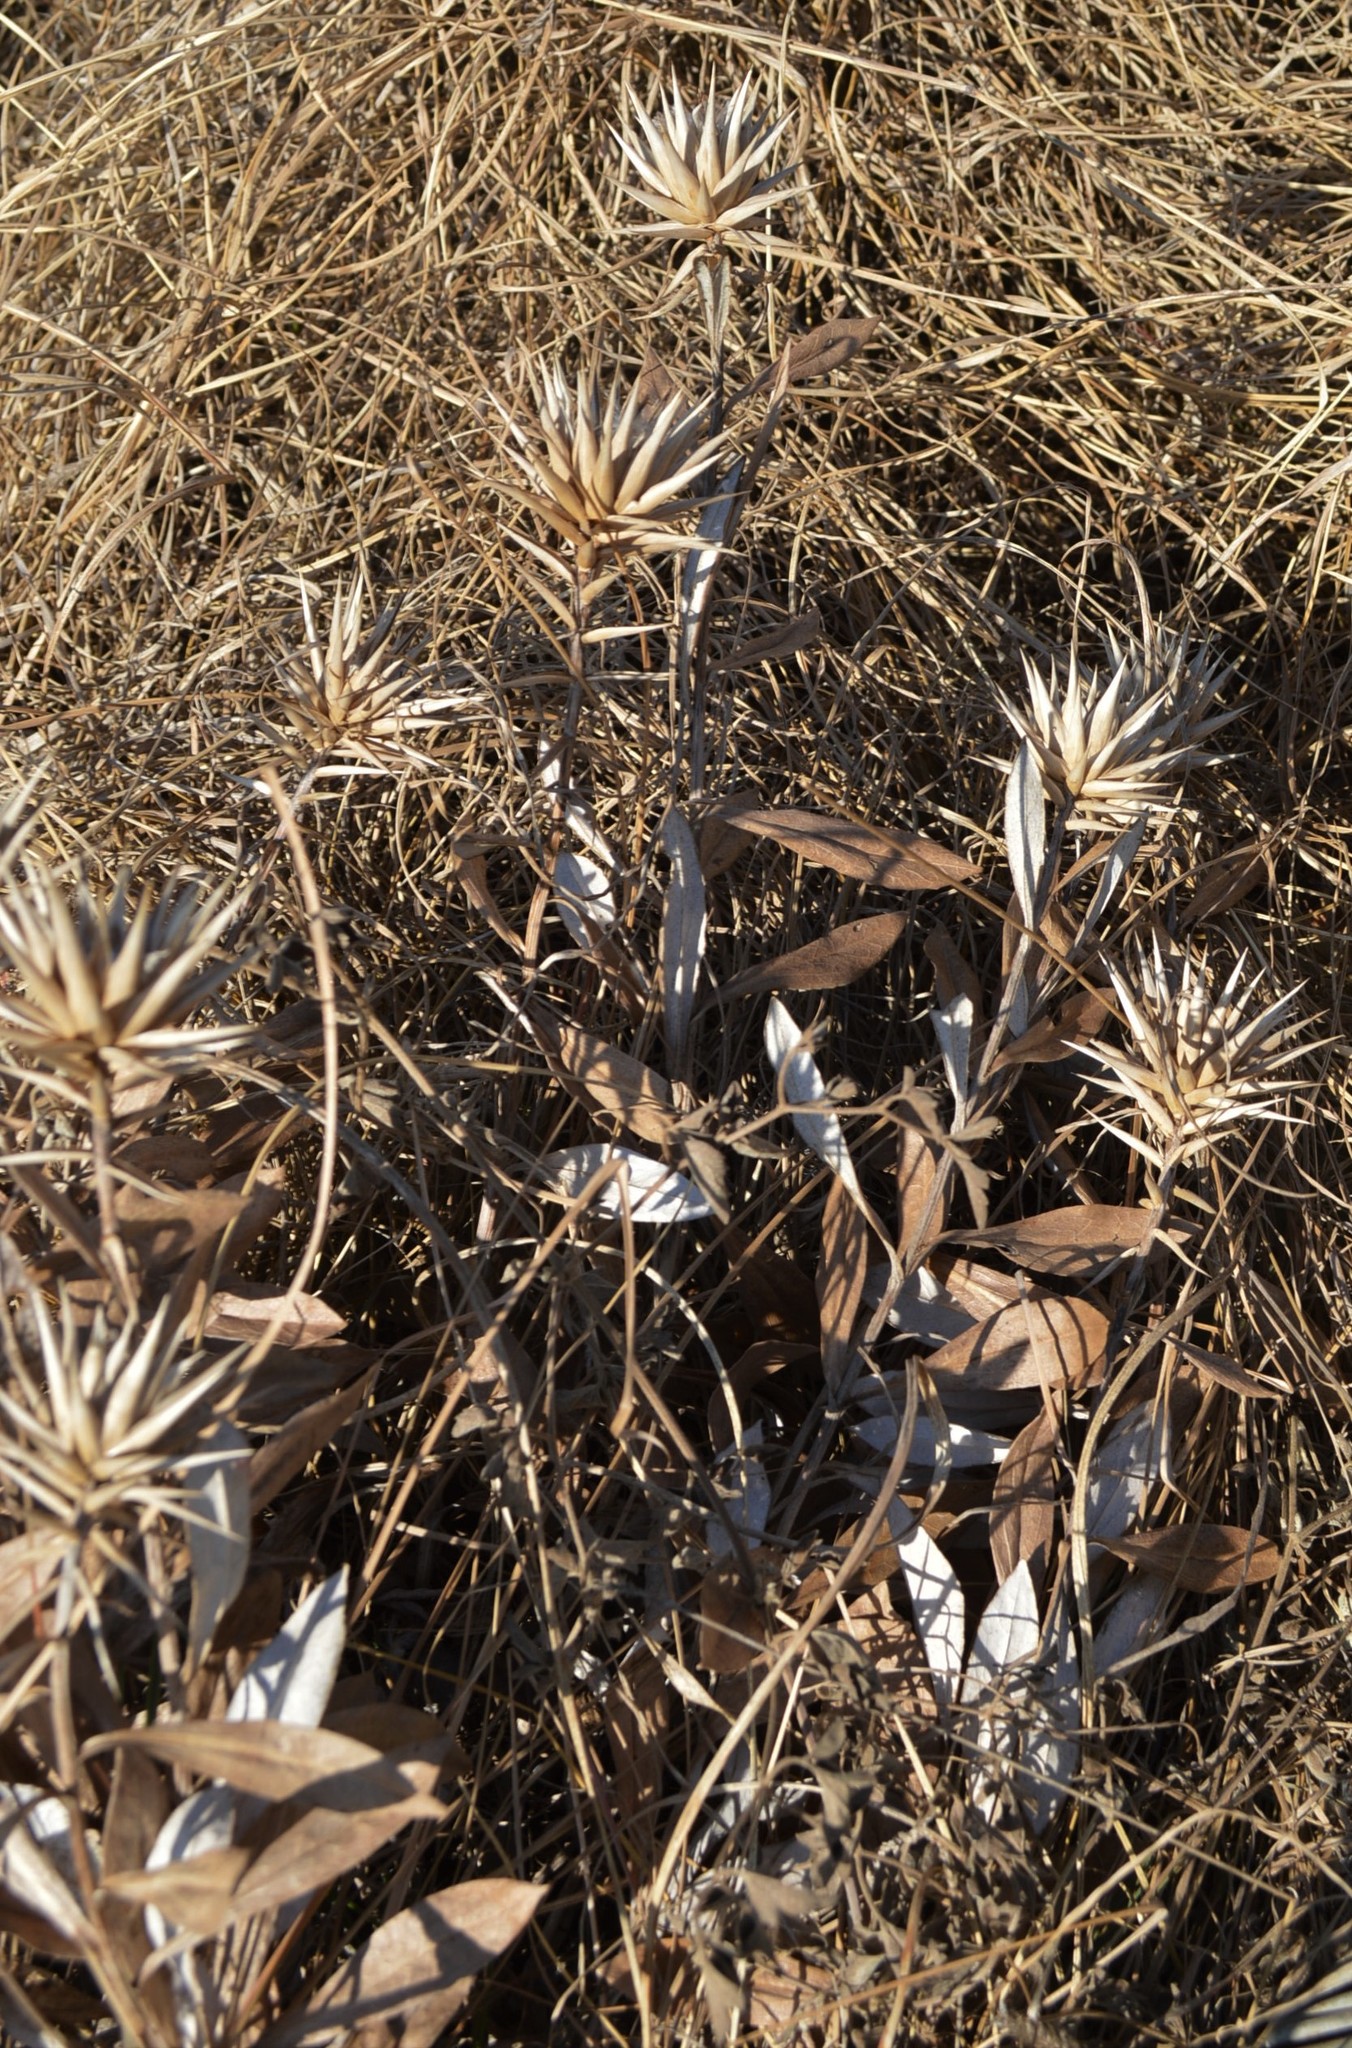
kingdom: Plantae
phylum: Tracheophyta
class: Magnoliopsida
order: Asterales
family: Asteraceae
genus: Macledium
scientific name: Macledium zeyheri
